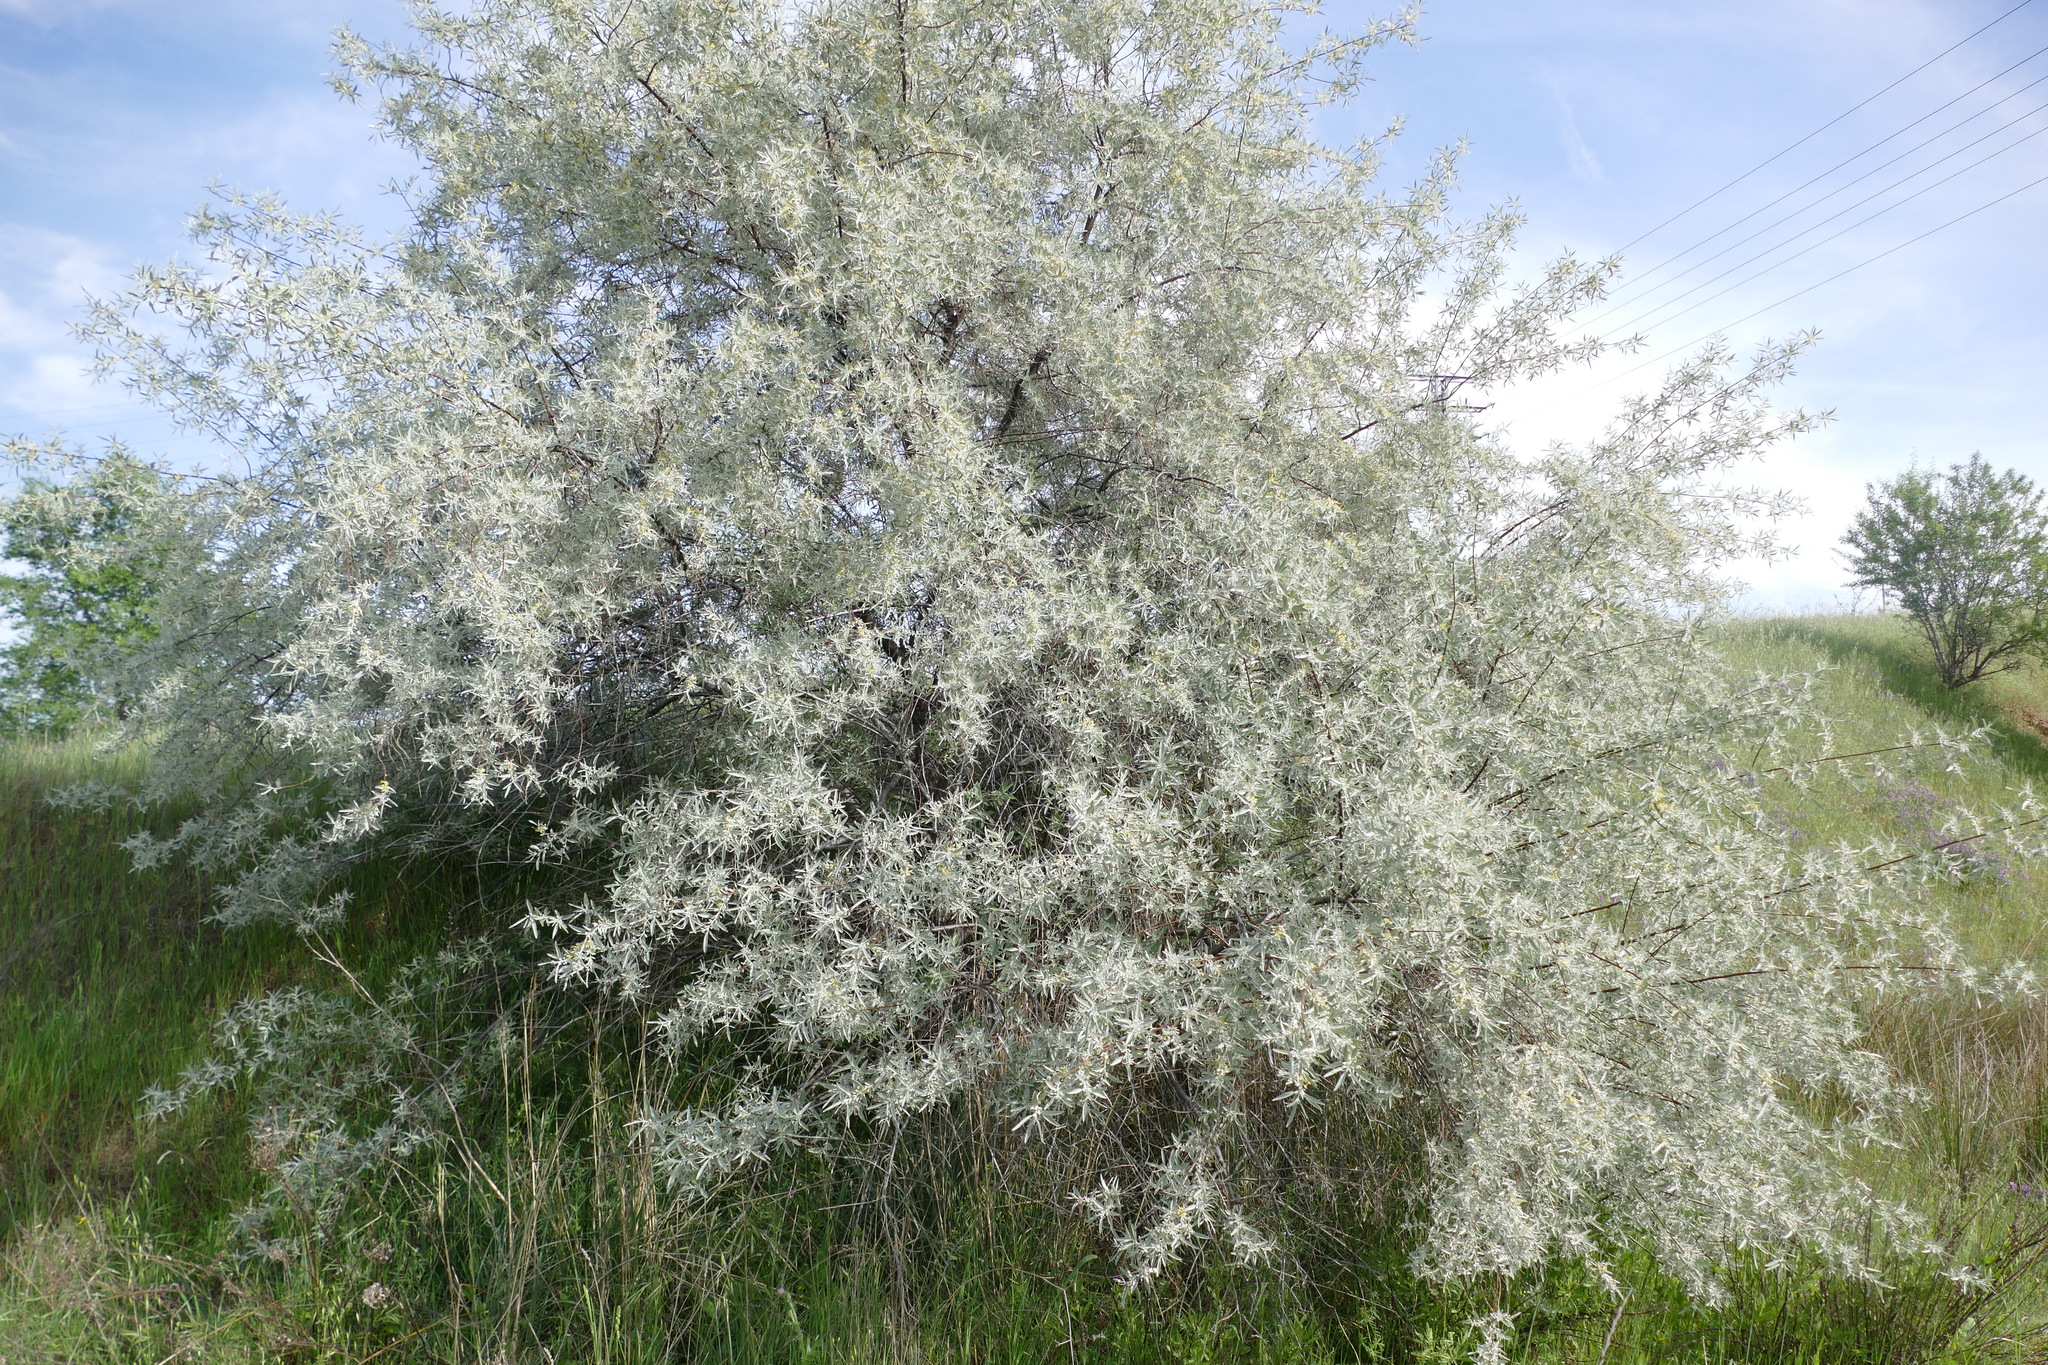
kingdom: Plantae
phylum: Tracheophyta
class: Magnoliopsida
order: Rosales
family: Elaeagnaceae
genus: Elaeagnus
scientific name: Elaeagnus angustifolia
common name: Russian olive
